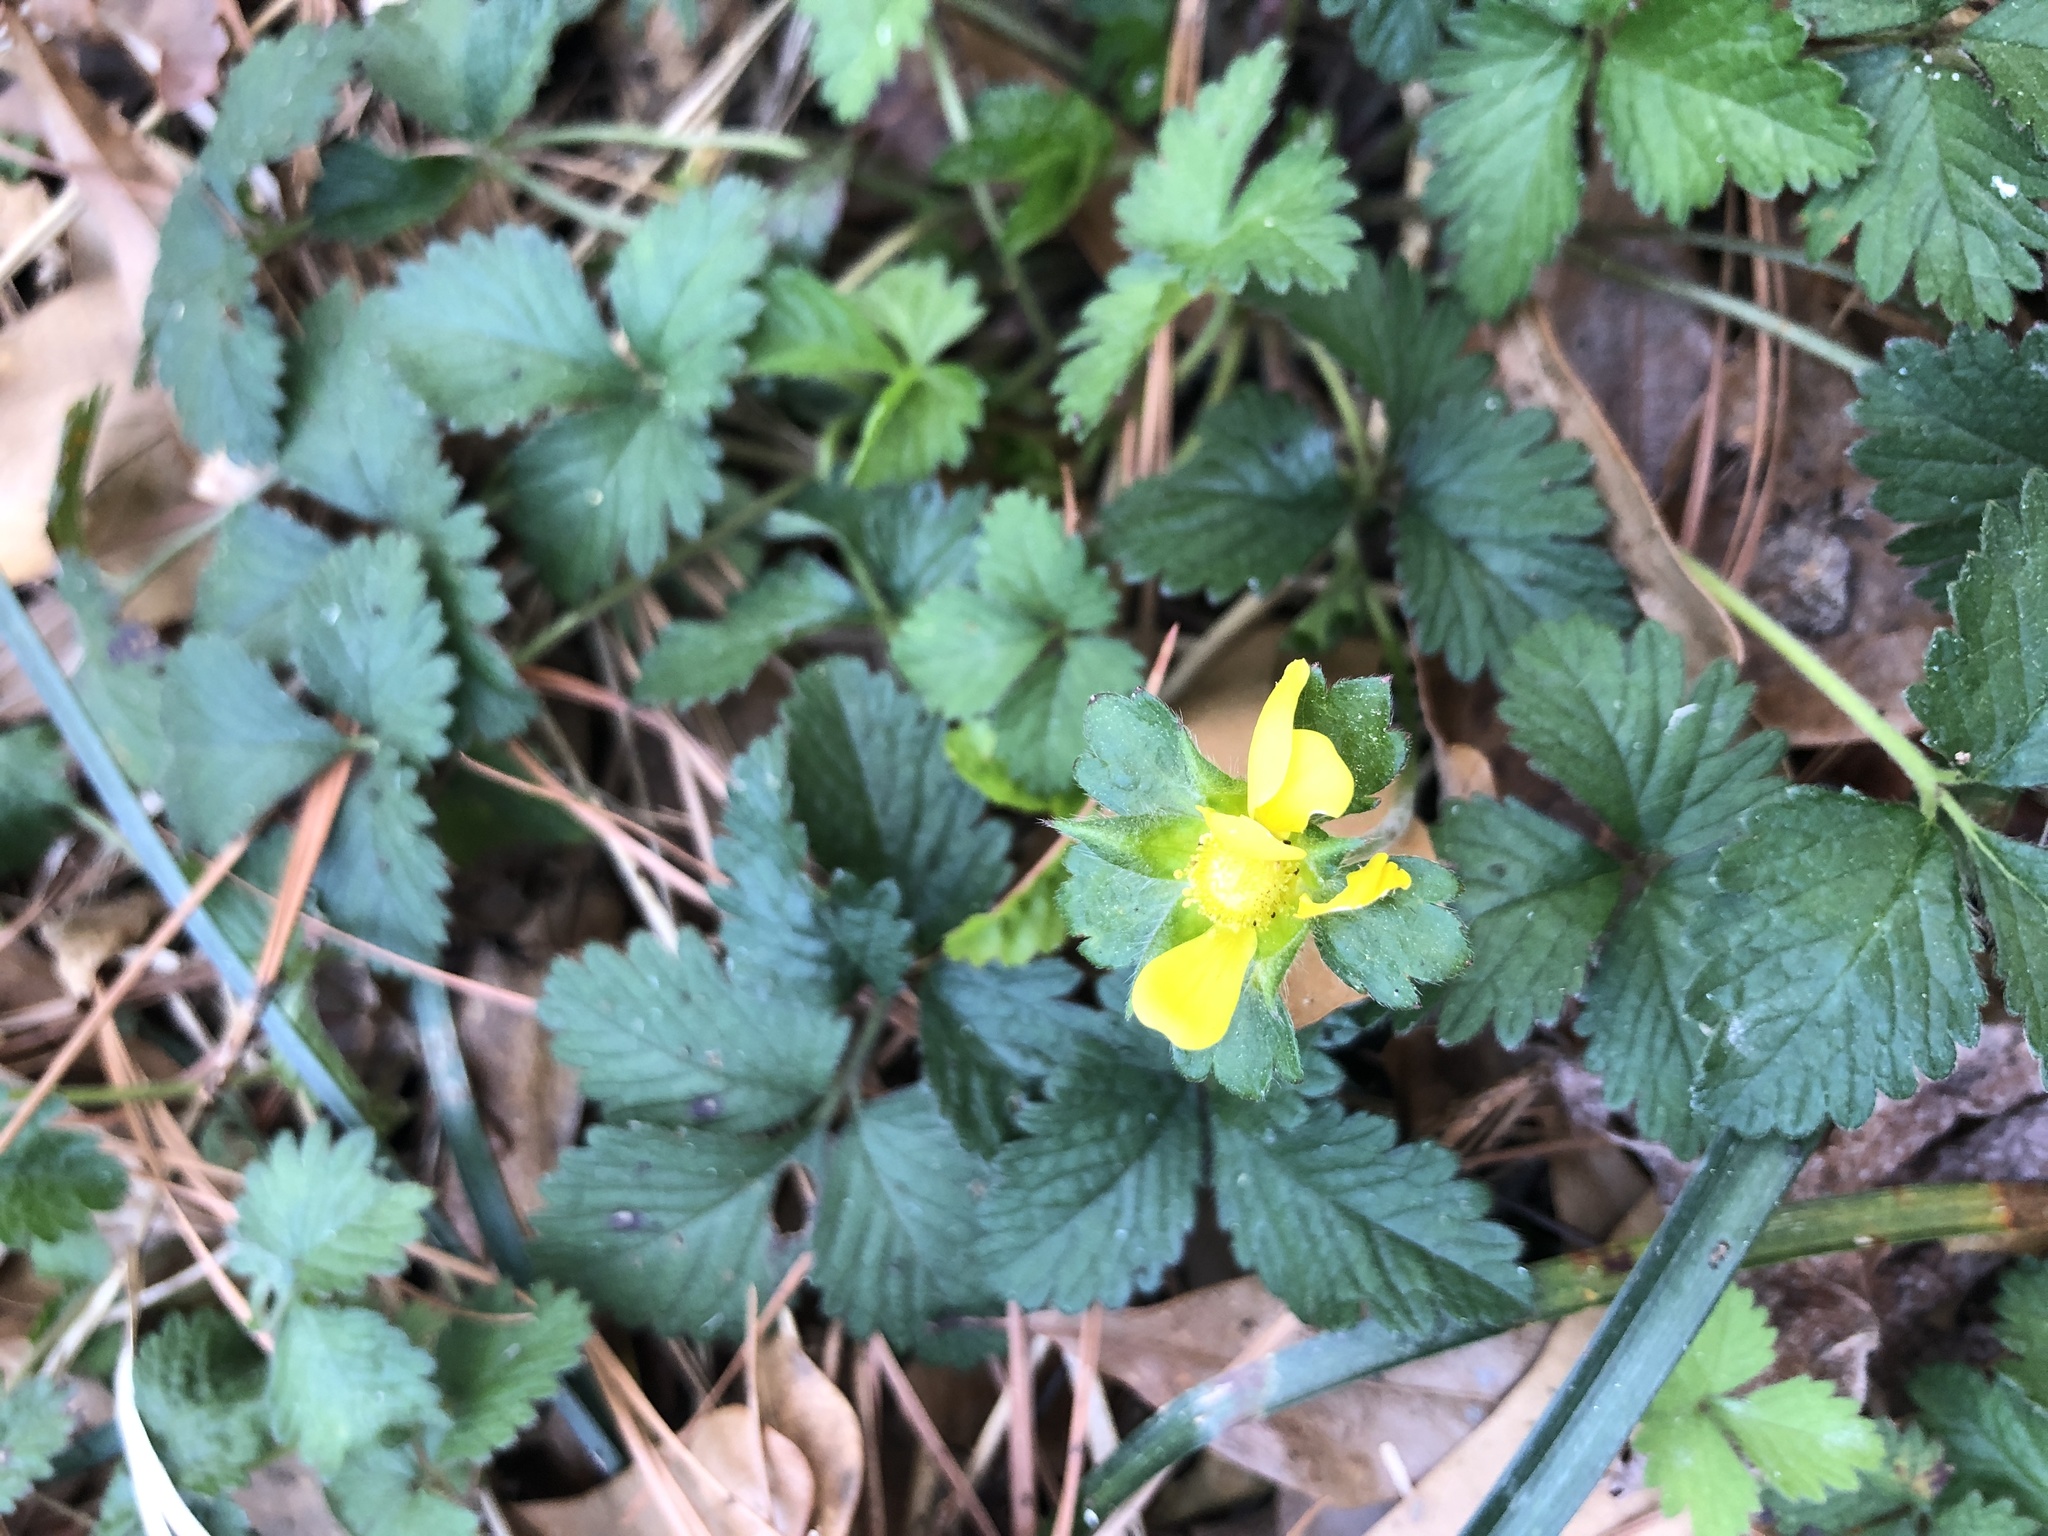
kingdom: Plantae
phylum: Tracheophyta
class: Magnoliopsida
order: Rosales
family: Rosaceae
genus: Potentilla
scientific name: Potentilla indica
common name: Yellow-flowered strawberry
